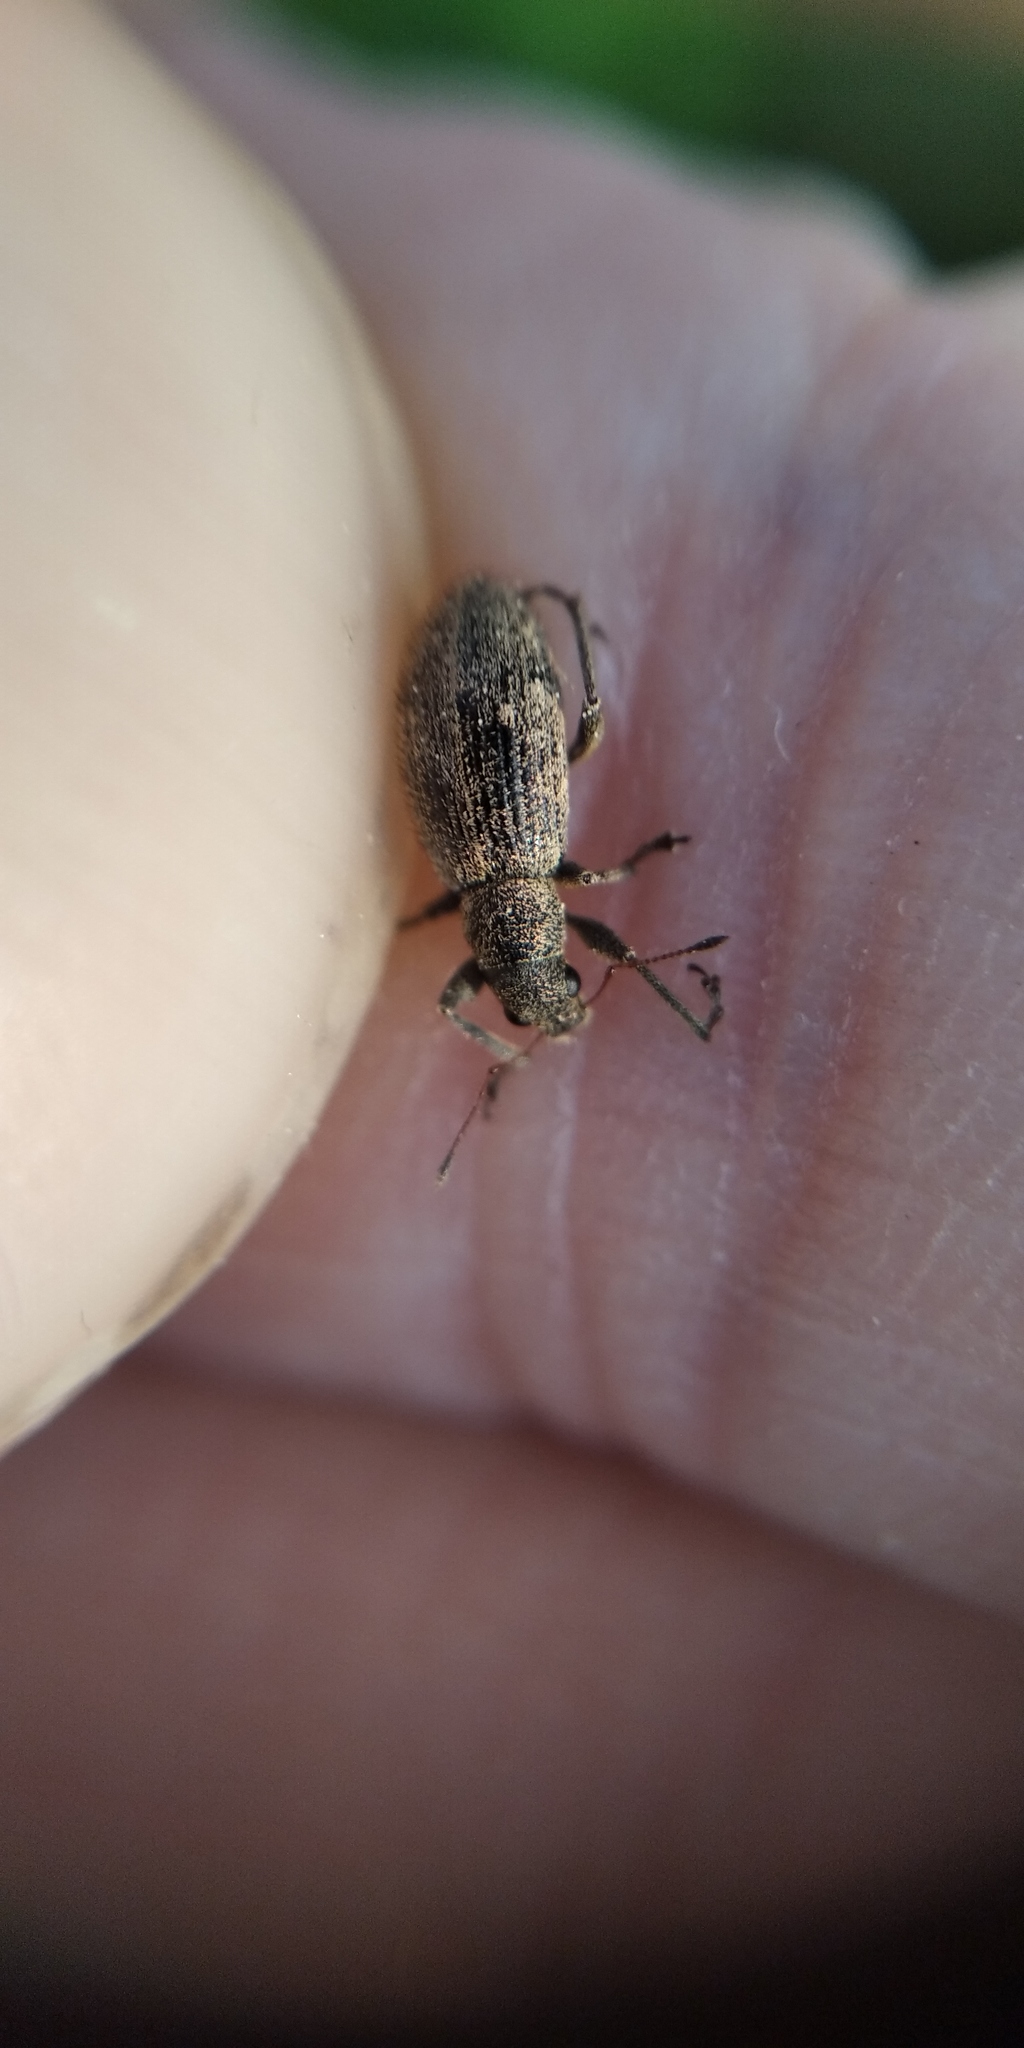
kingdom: Animalia
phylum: Arthropoda
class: Insecta
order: Coleoptera
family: Curculionidae
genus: Phyllobius
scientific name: Phyllobius pyri
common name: Common leaf weevil
